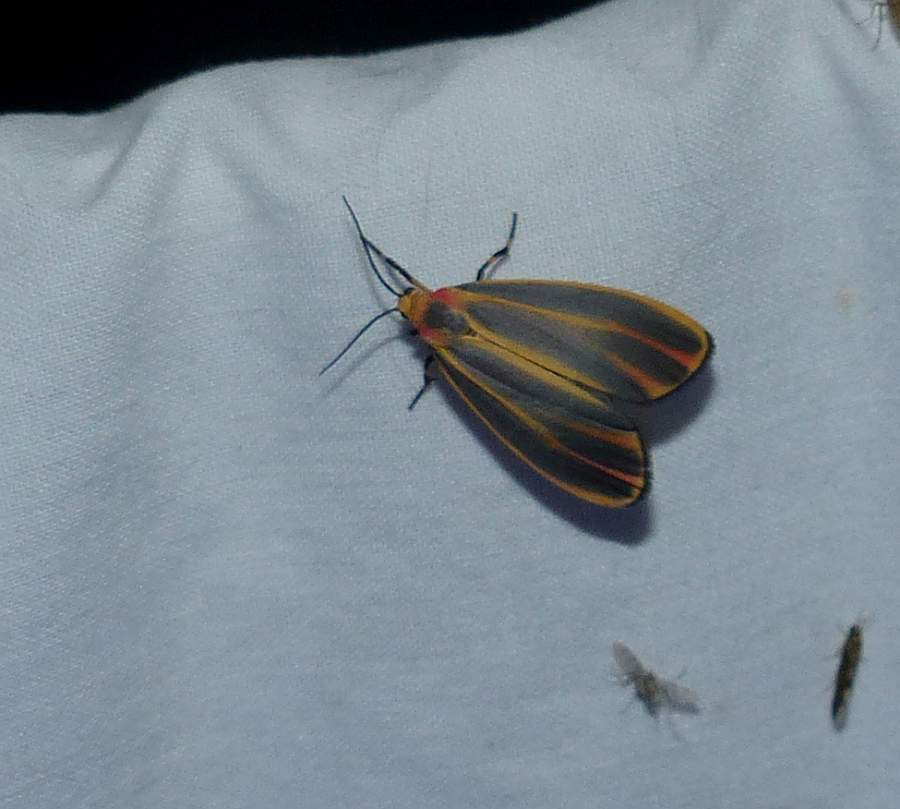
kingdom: Animalia
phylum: Arthropoda
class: Insecta
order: Lepidoptera
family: Erebidae
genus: Hypoprepia
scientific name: Hypoprepia fucosa
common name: Painted lichen moth
